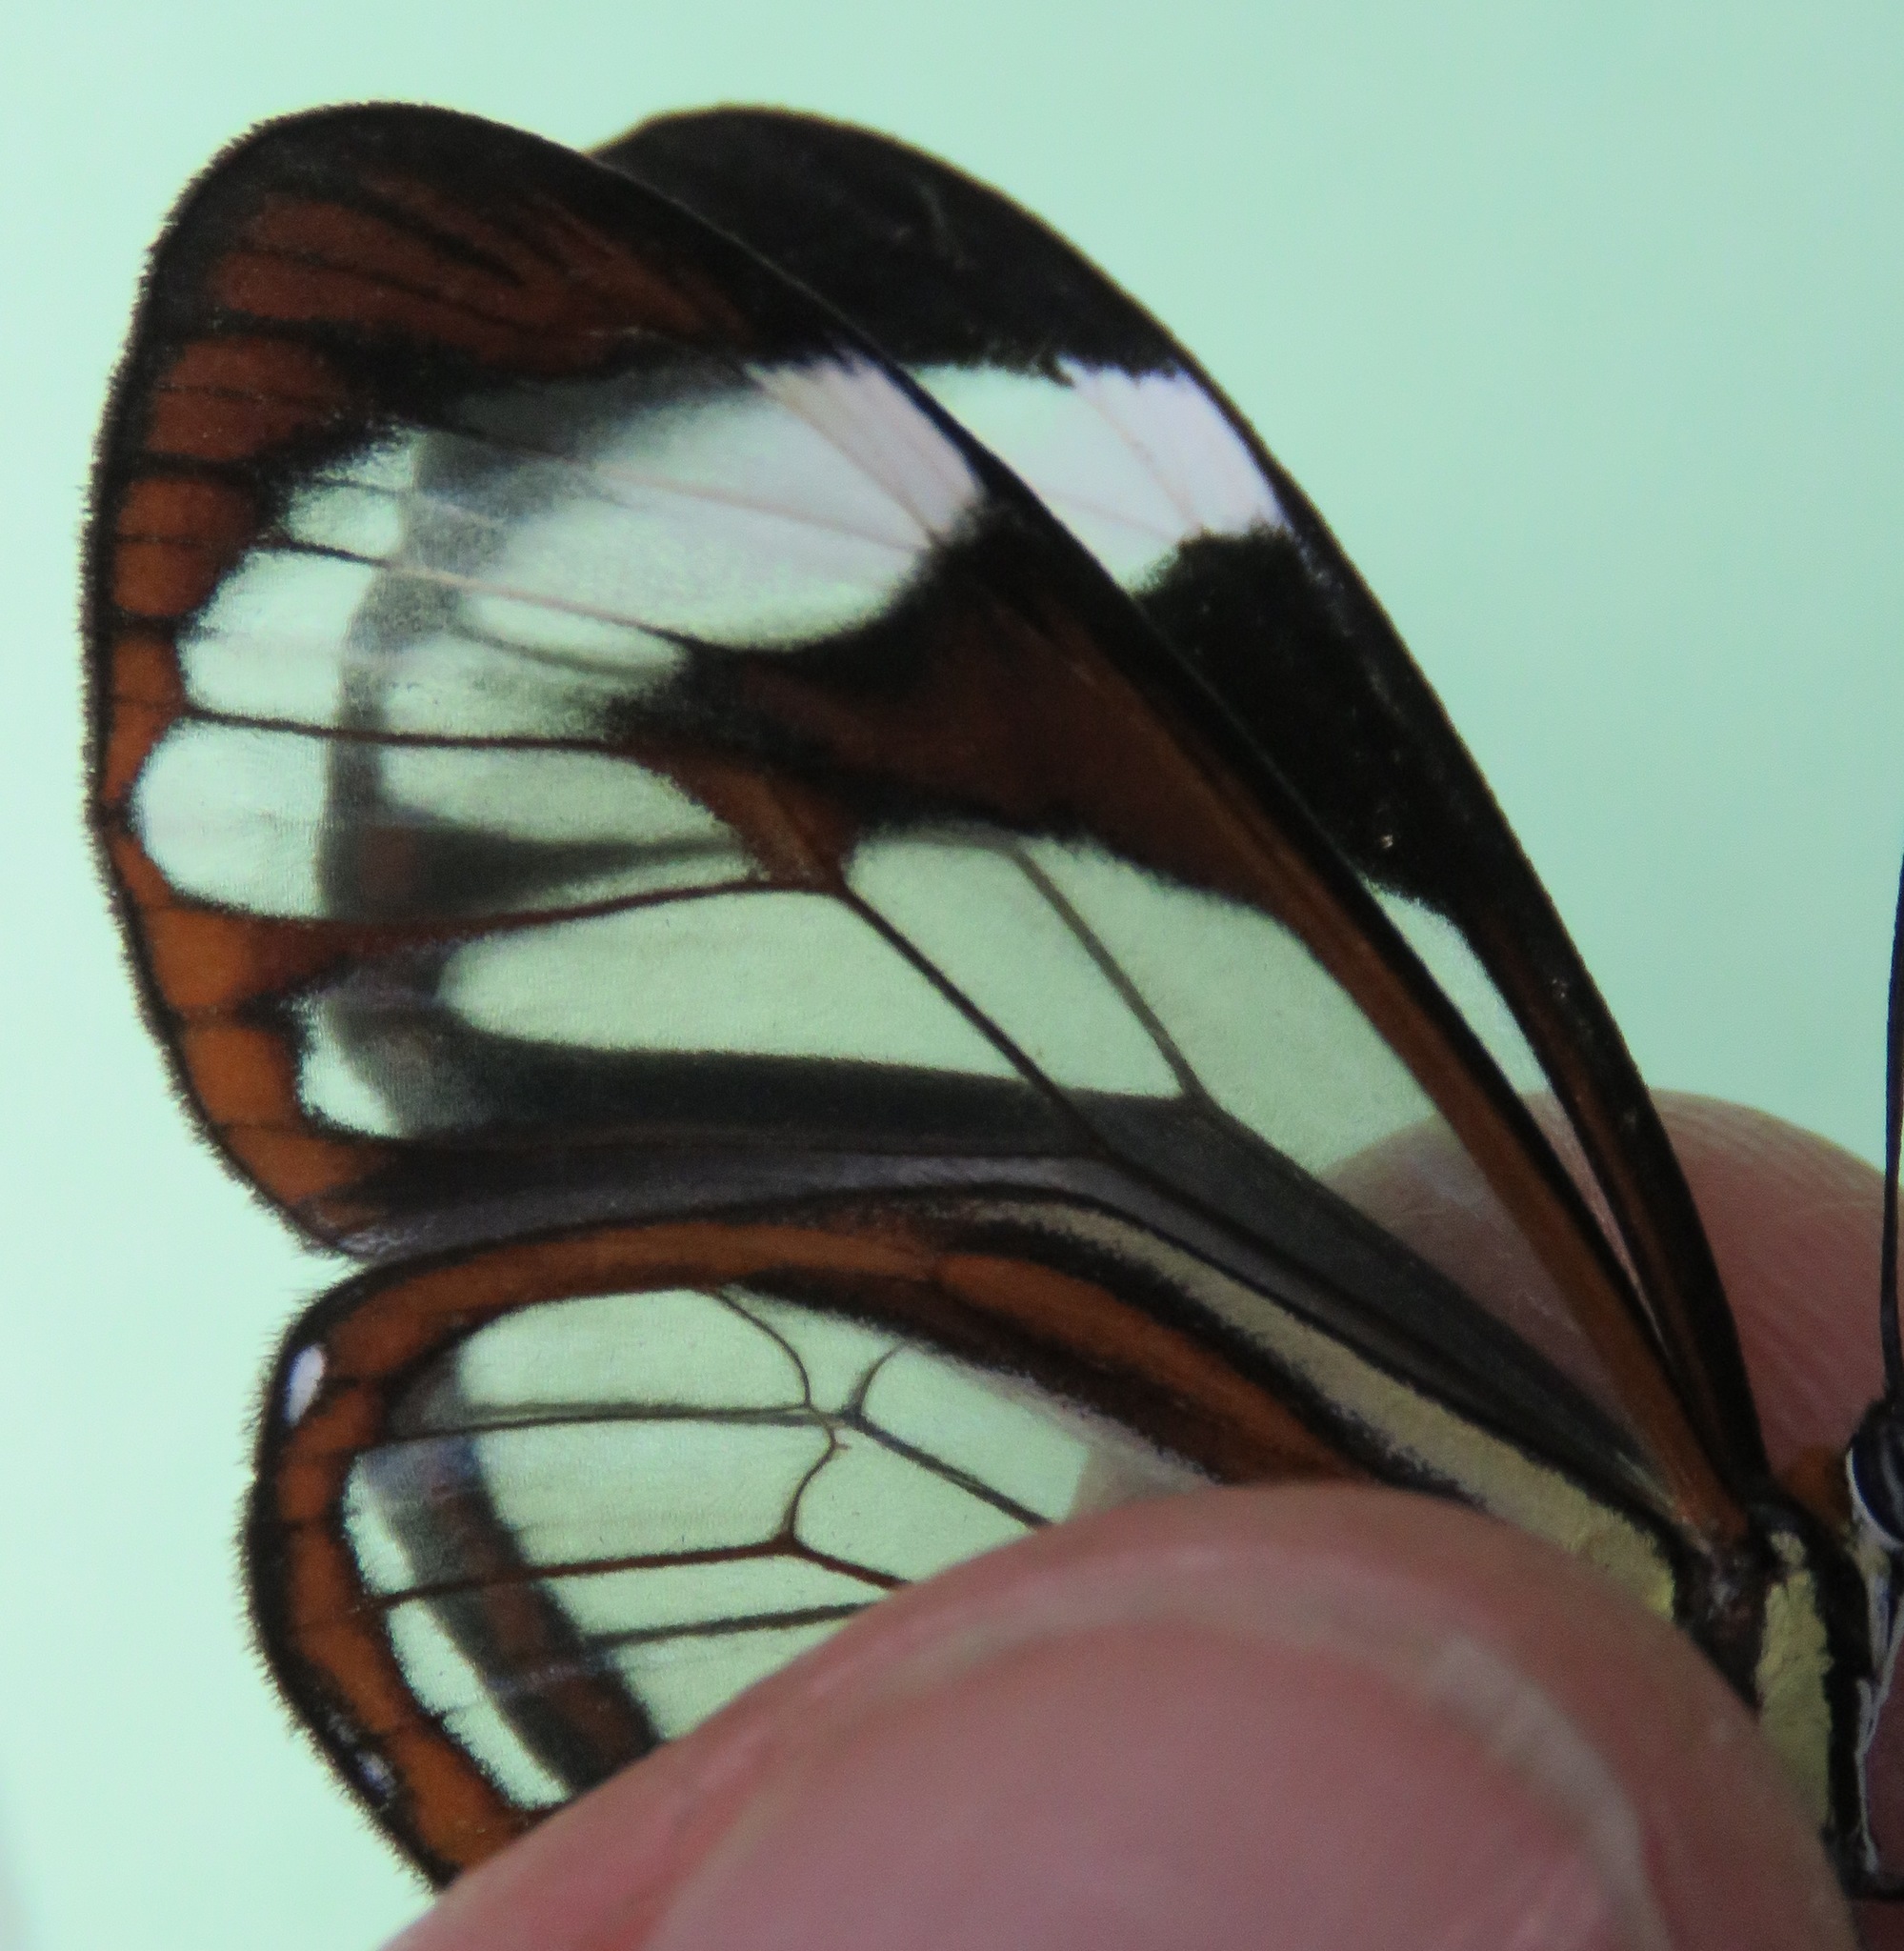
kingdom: Animalia
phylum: Arthropoda
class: Insecta
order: Lepidoptera
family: Nymphalidae
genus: Ithomia
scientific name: Ithomia patilla
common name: Patilla clearwing
